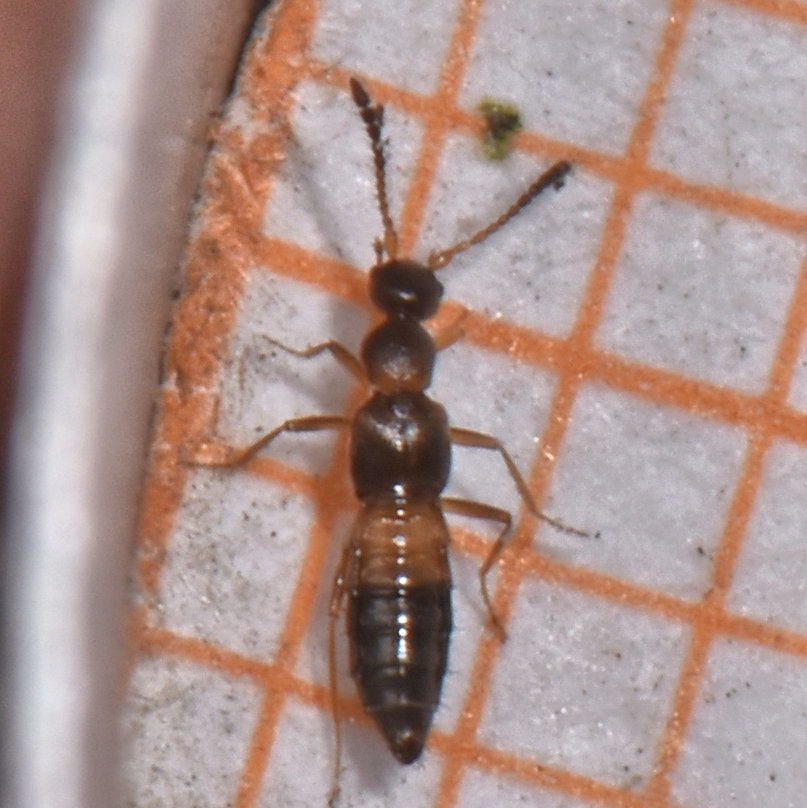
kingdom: Animalia
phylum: Arthropoda
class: Insecta
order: Coleoptera
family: Staphylinidae
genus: Meronera
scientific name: Meronera venustula
